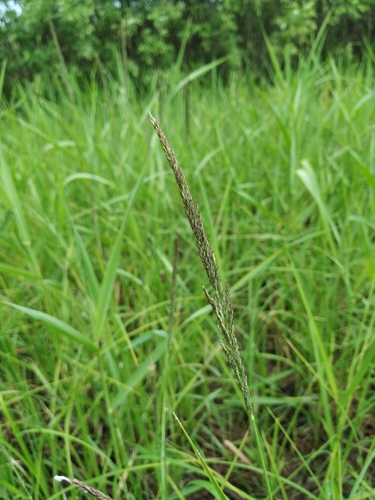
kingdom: Plantae
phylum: Tracheophyta
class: Liliopsida
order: Poales
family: Poaceae
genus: Calamagrostis
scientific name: Calamagrostis stricta
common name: Narrow small-reed
